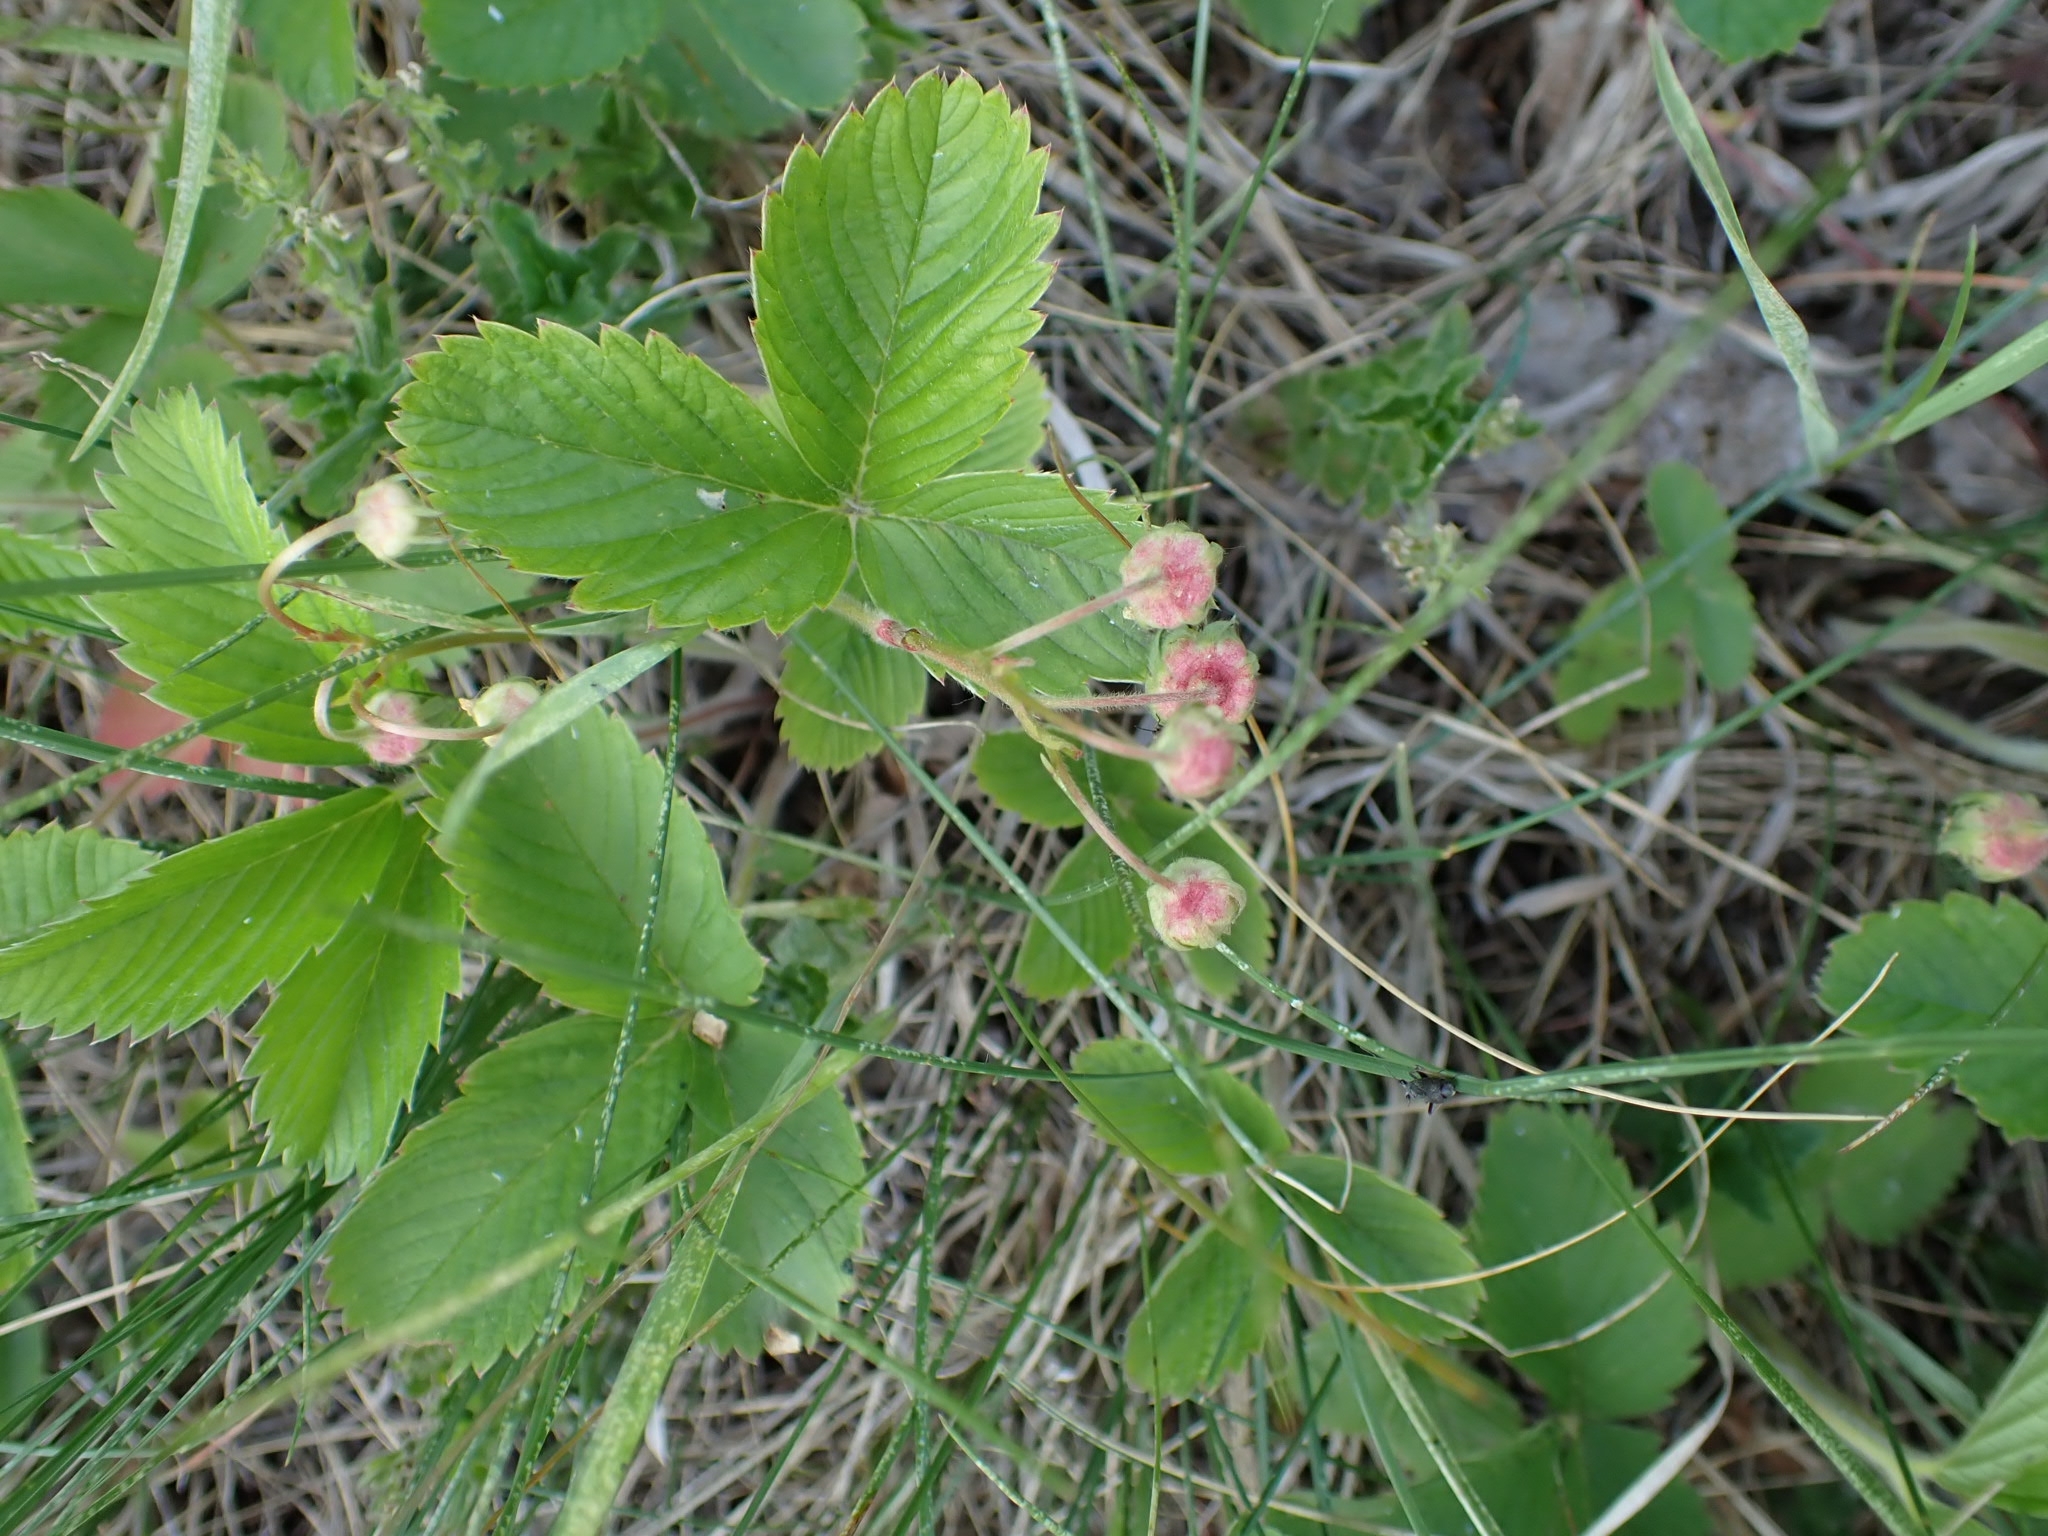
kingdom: Plantae
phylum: Tracheophyta
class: Magnoliopsida
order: Rosales
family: Rosaceae
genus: Fragaria
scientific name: Fragaria viridis
